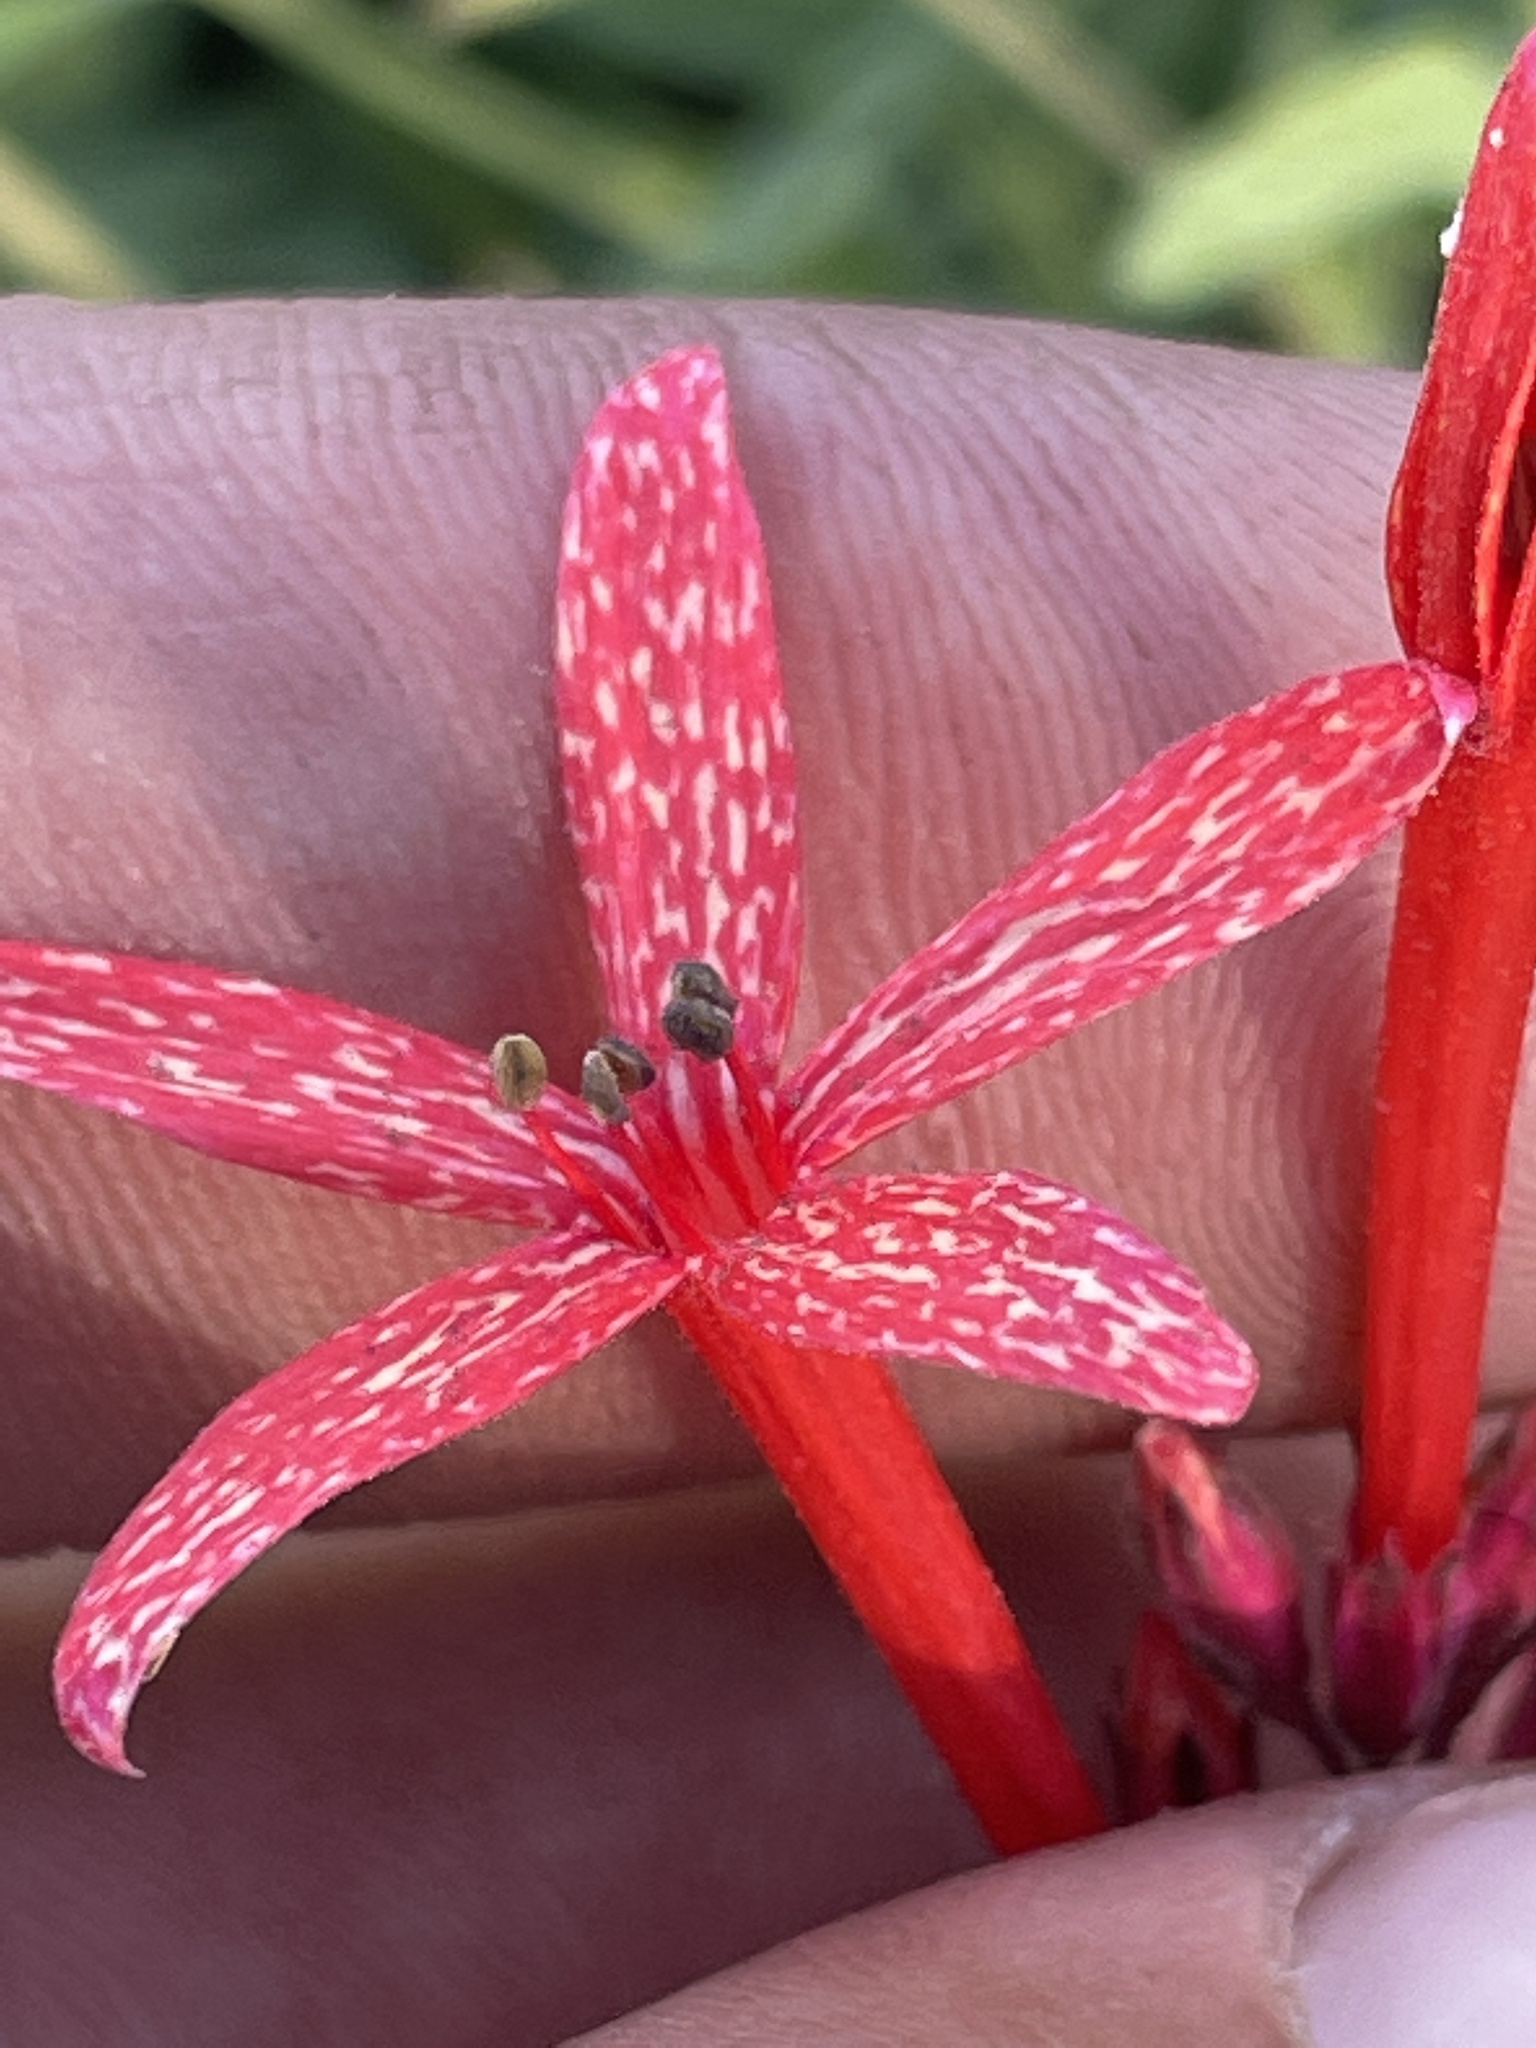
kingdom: Plantae
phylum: Tracheophyta
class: Magnoliopsida
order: Ericales
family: Polemoniaceae
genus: Ipomopsis
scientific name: Ipomopsis aggregata
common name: Scarlet gilia
